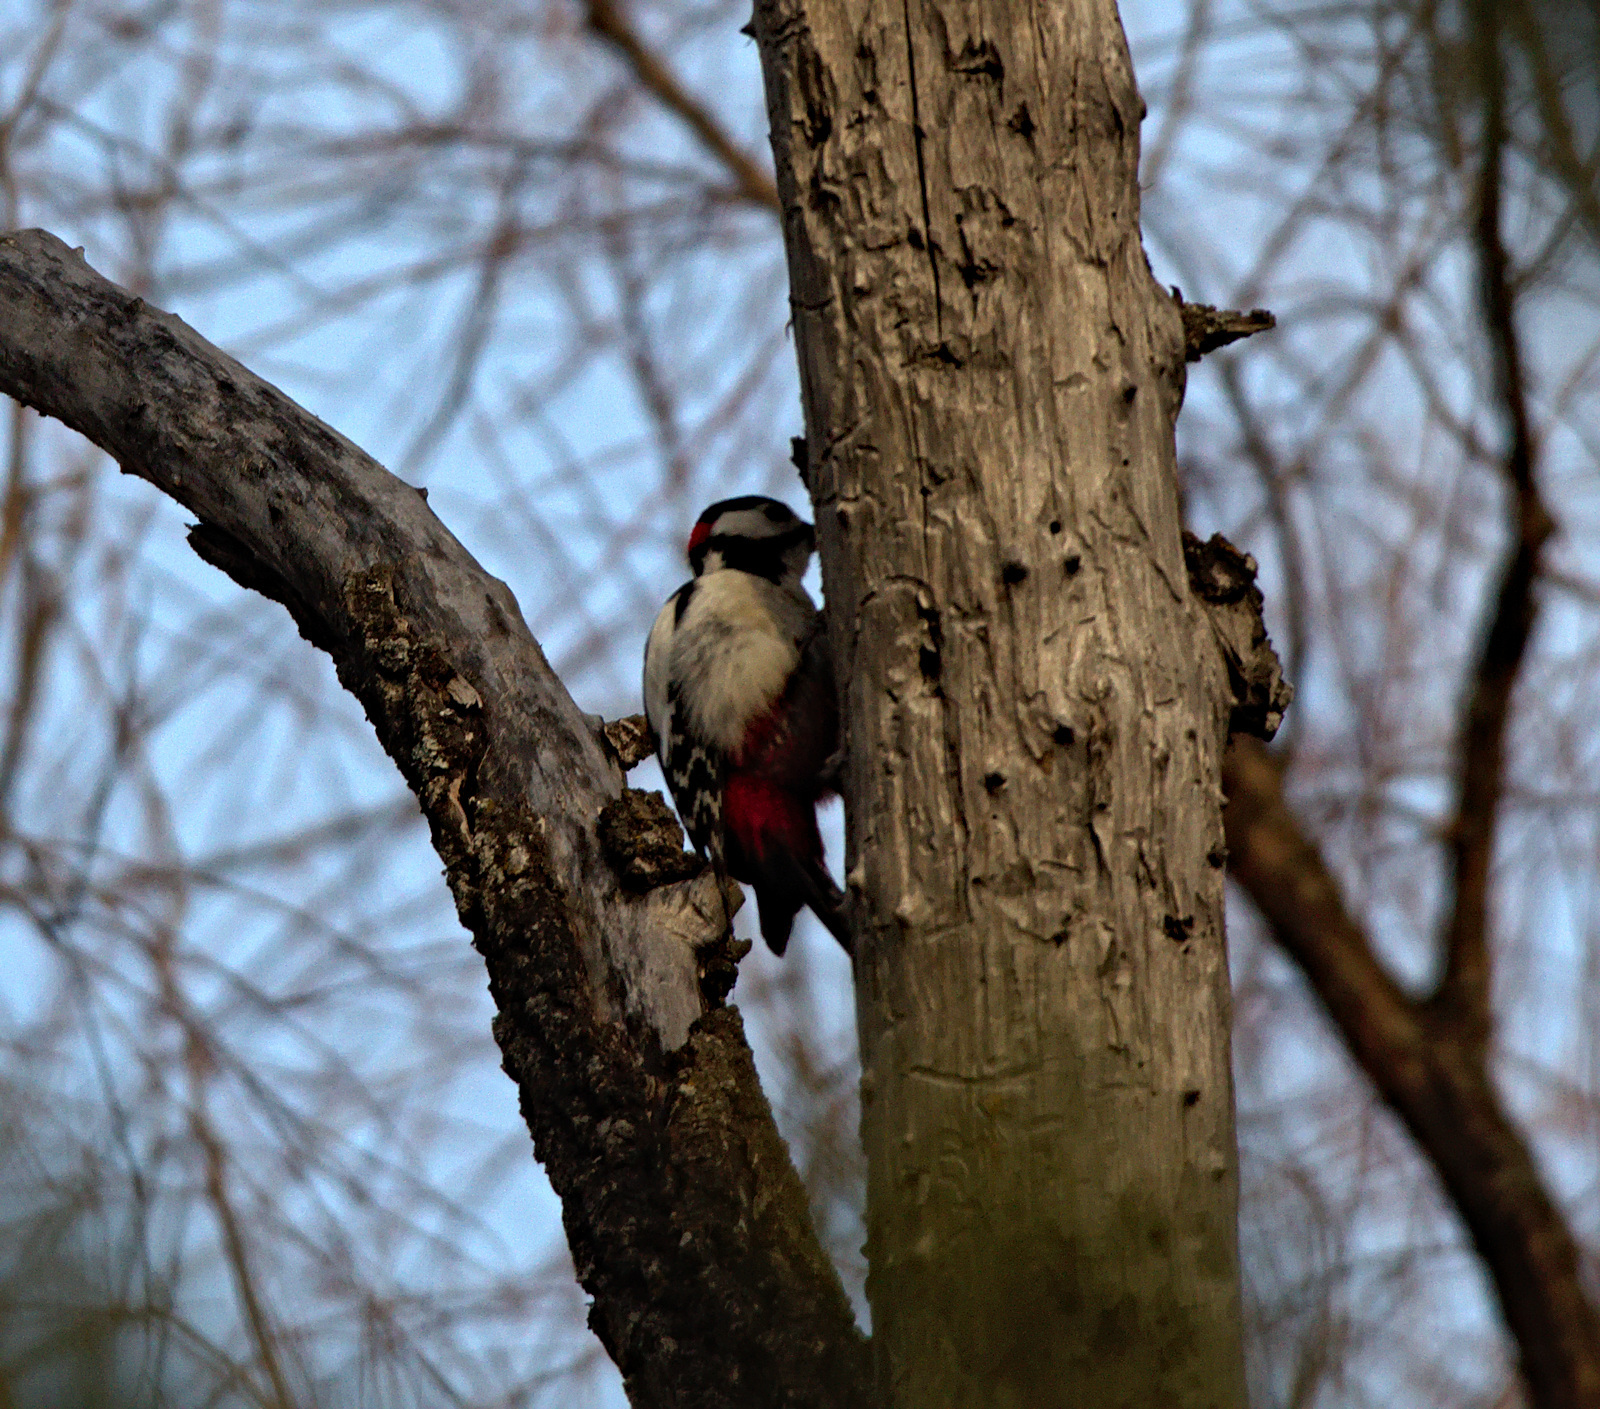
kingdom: Animalia
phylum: Chordata
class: Aves
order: Piciformes
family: Picidae
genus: Dendrocopos
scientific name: Dendrocopos major
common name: Great spotted woodpecker
